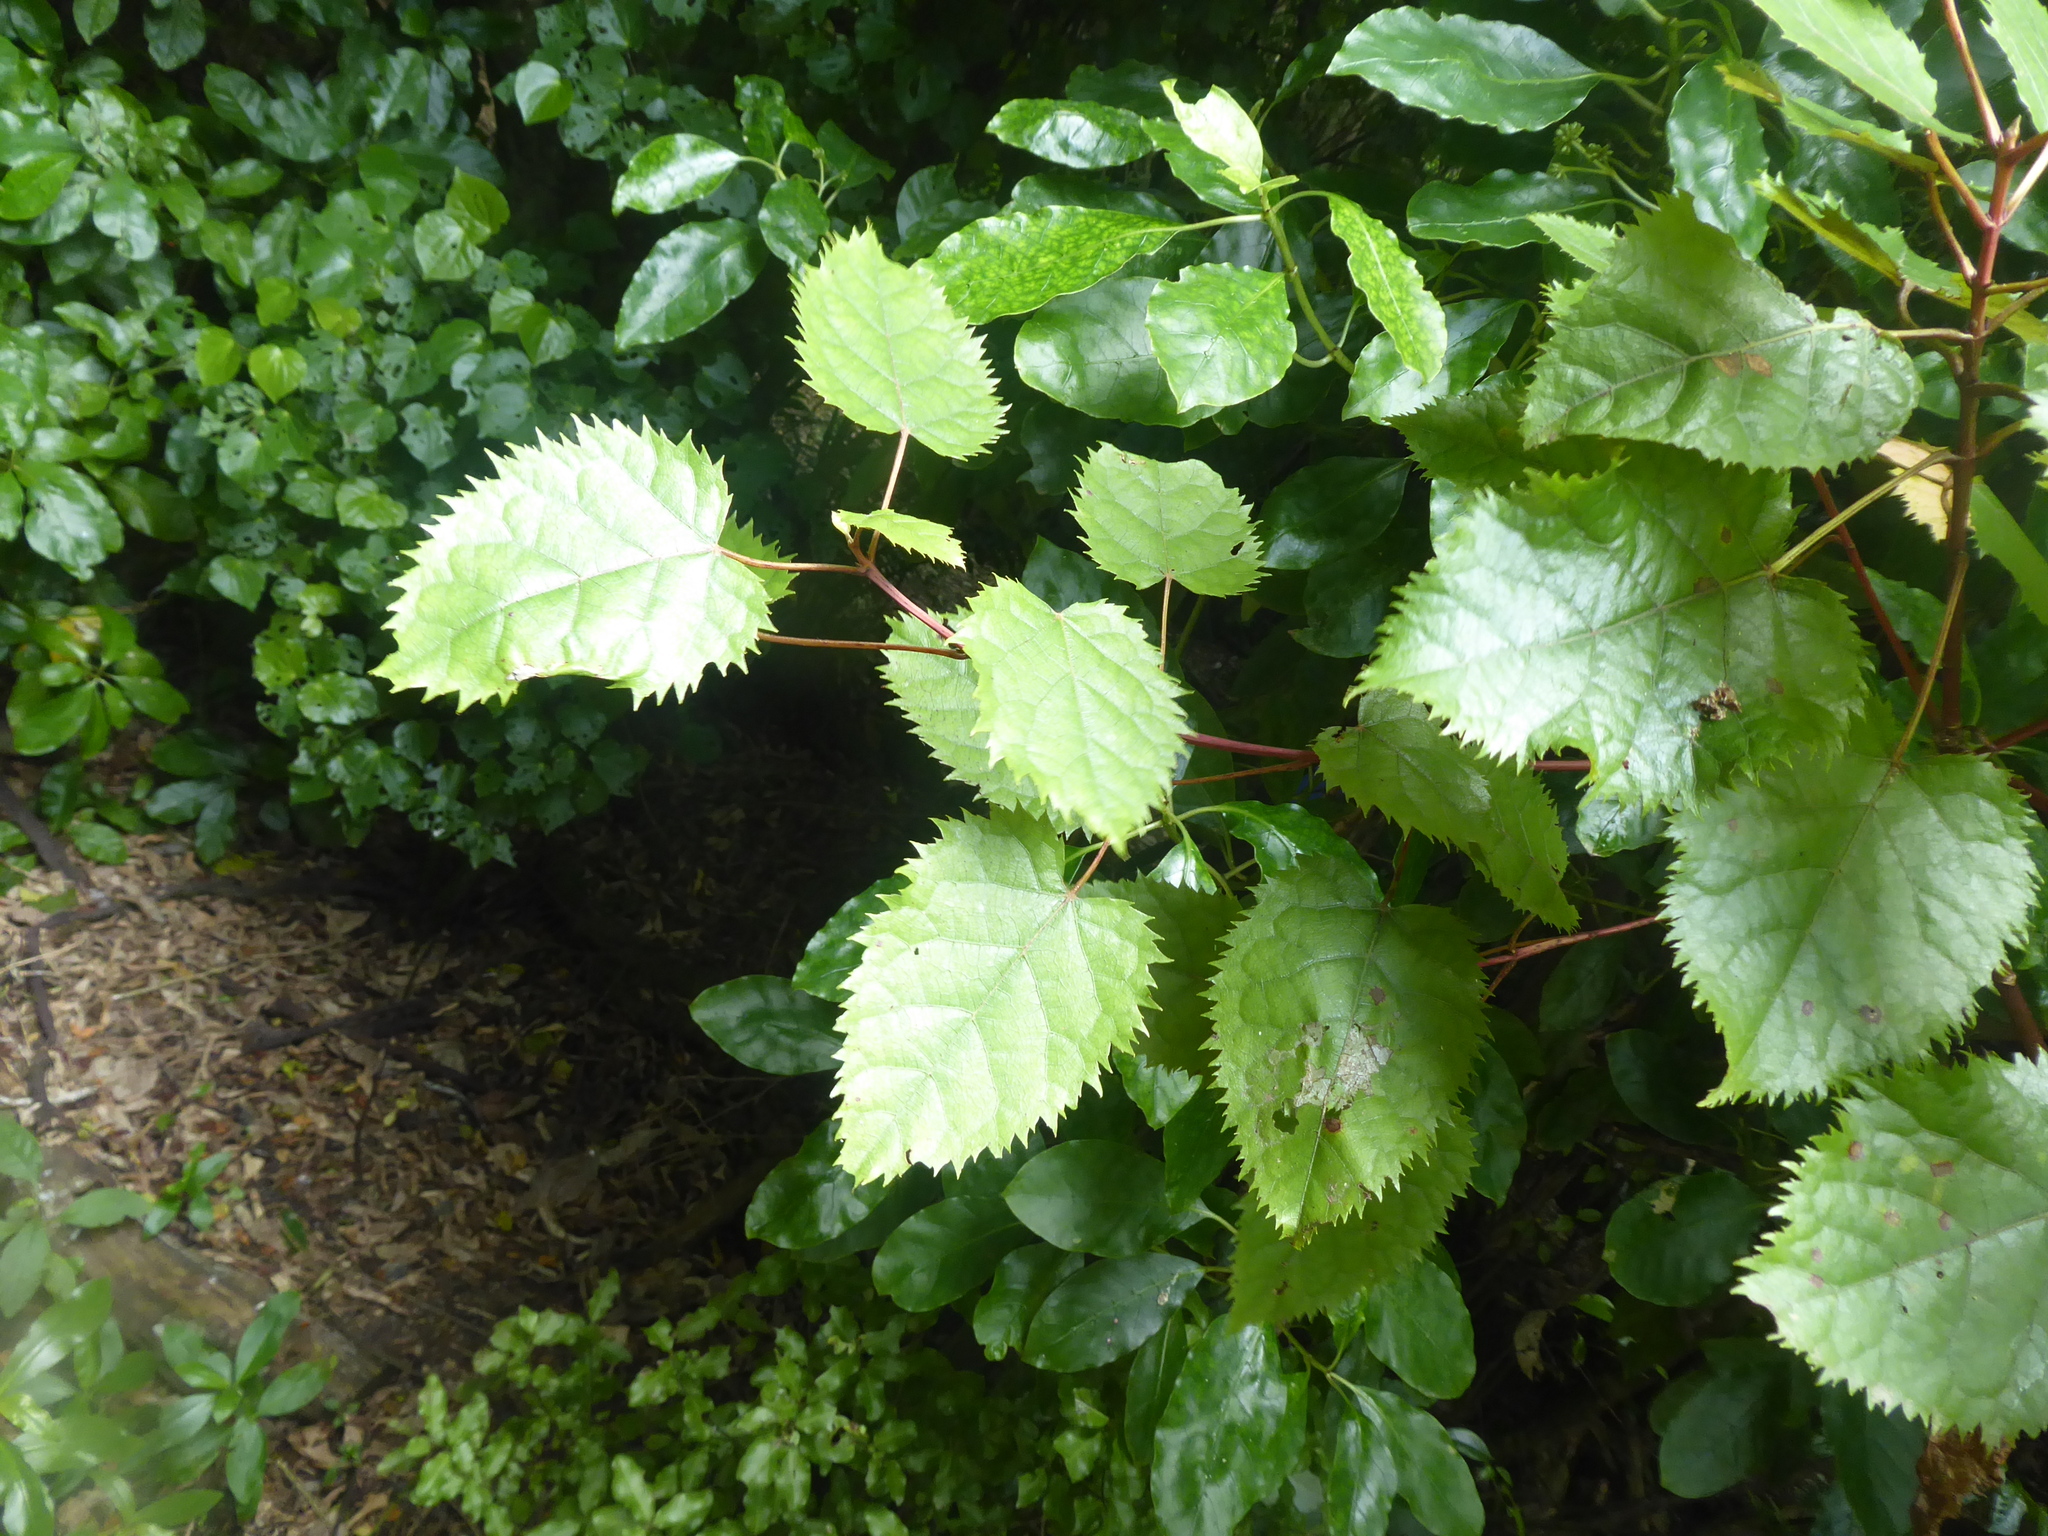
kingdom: Plantae
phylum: Tracheophyta
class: Magnoliopsida
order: Oxalidales
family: Elaeocarpaceae
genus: Aristotelia
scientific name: Aristotelia serrata
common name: New zealand wineberry
